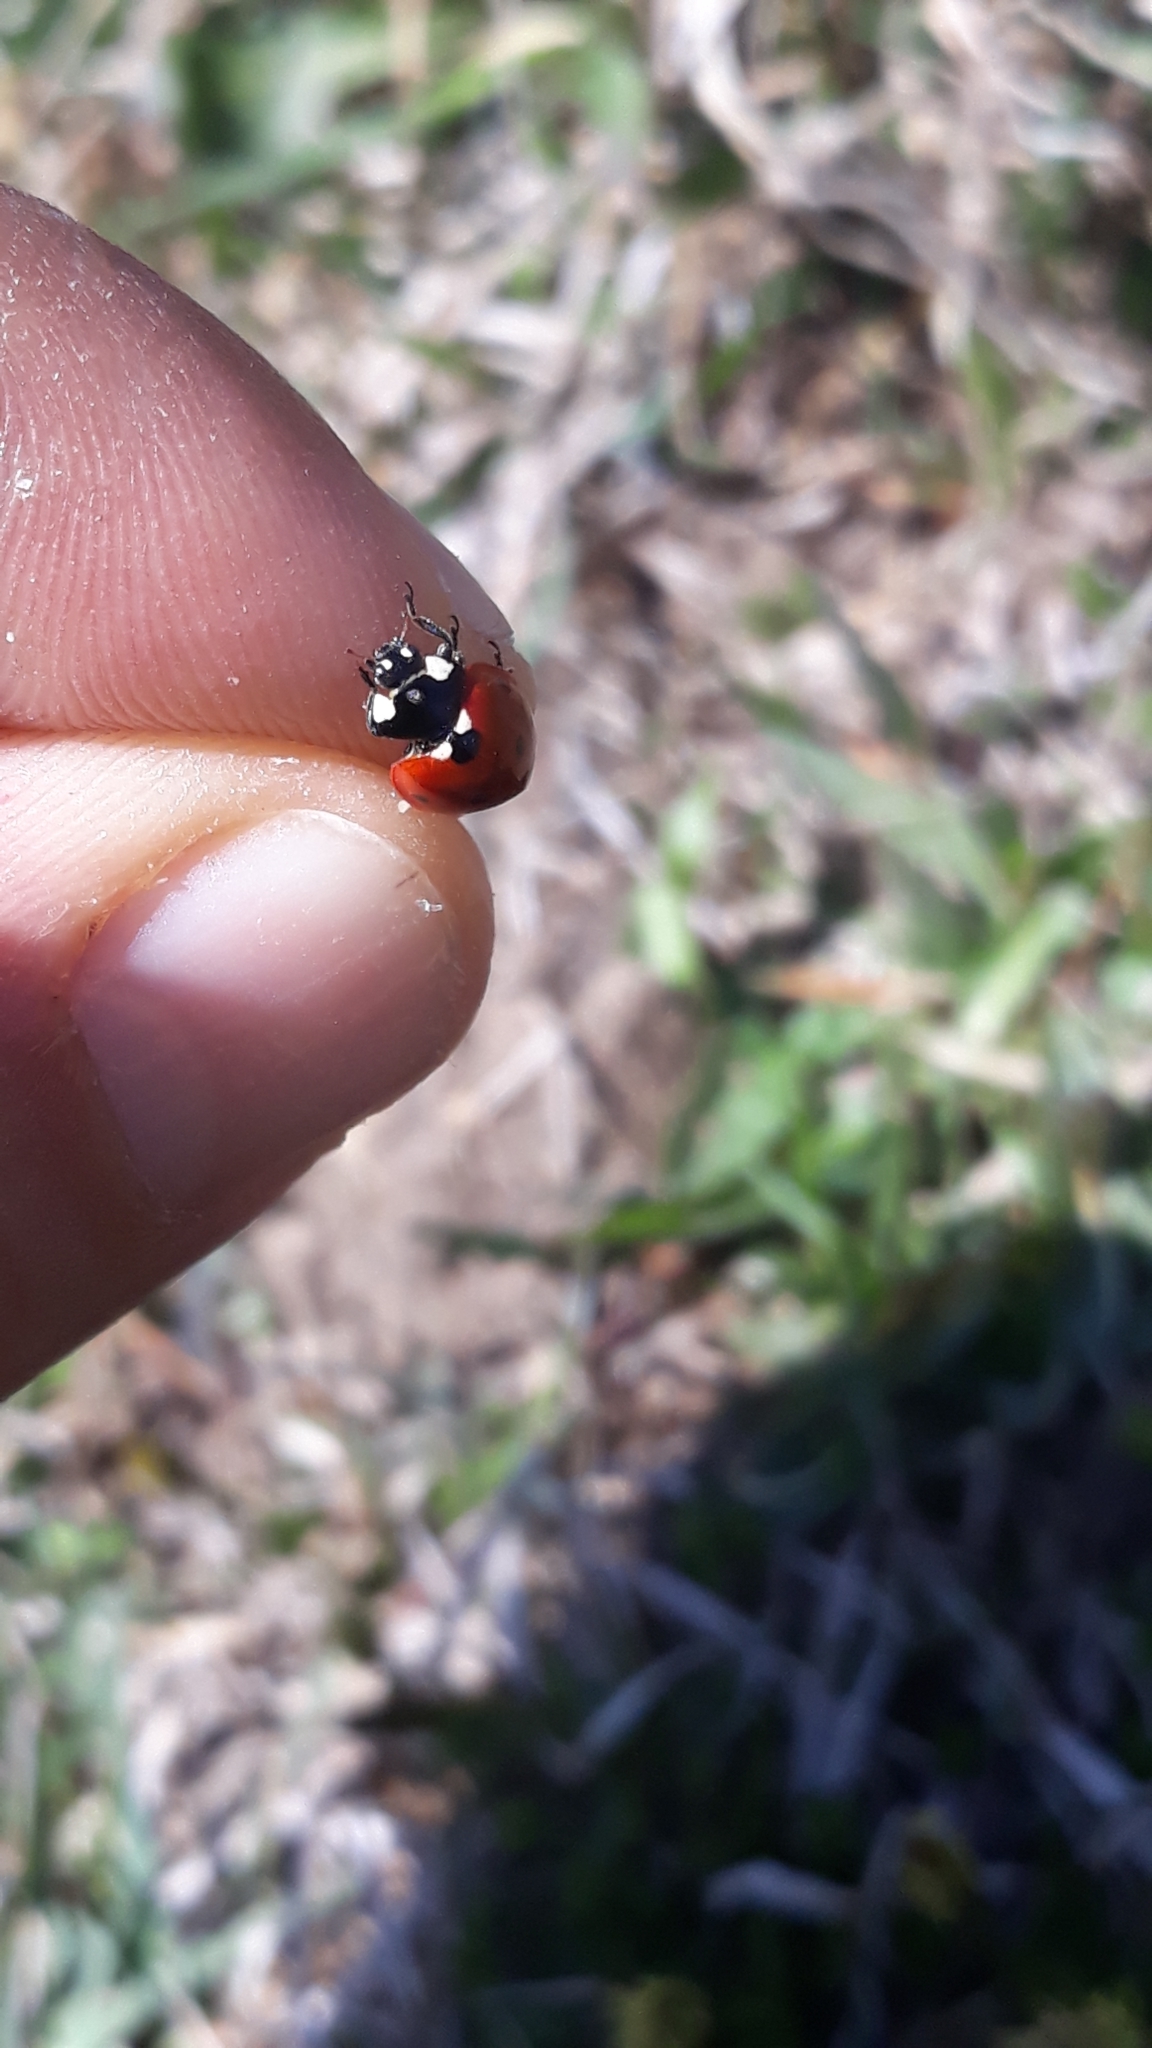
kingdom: Animalia
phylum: Arthropoda
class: Insecta
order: Coleoptera
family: Coccinellidae
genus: Coccinella
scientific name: Coccinella septempunctata
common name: Sevenspotted lady beetle
